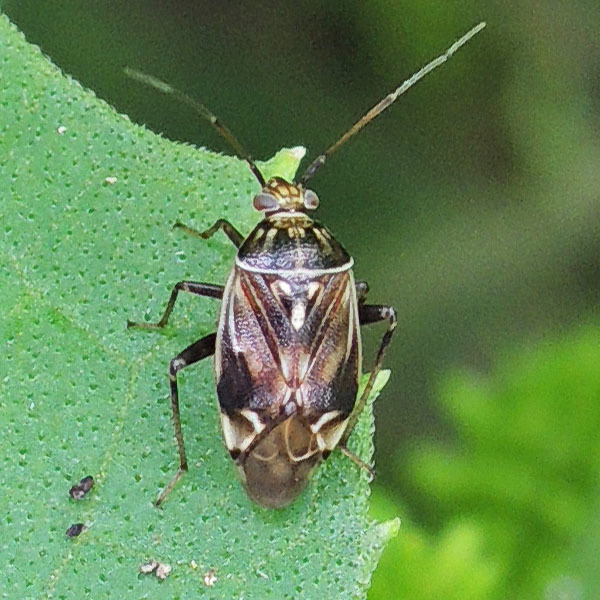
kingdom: Animalia
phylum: Arthropoda
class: Insecta
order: Hemiptera
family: Miridae
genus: Lygus
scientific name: Lygus lineolaris
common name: North american tarnished plant bug
